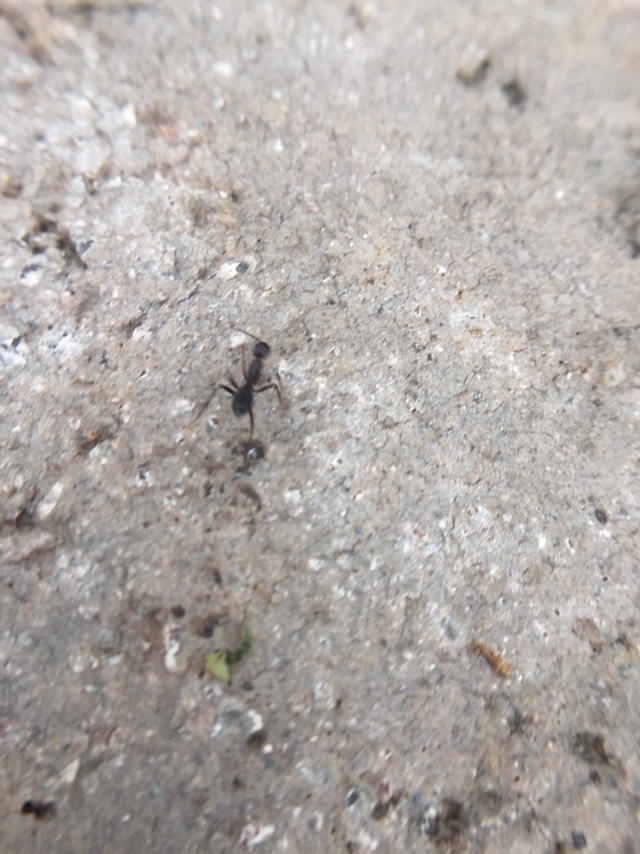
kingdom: Animalia
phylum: Arthropoda
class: Insecta
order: Hymenoptera
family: Formicidae
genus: Camponotus
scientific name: Camponotus compressus
